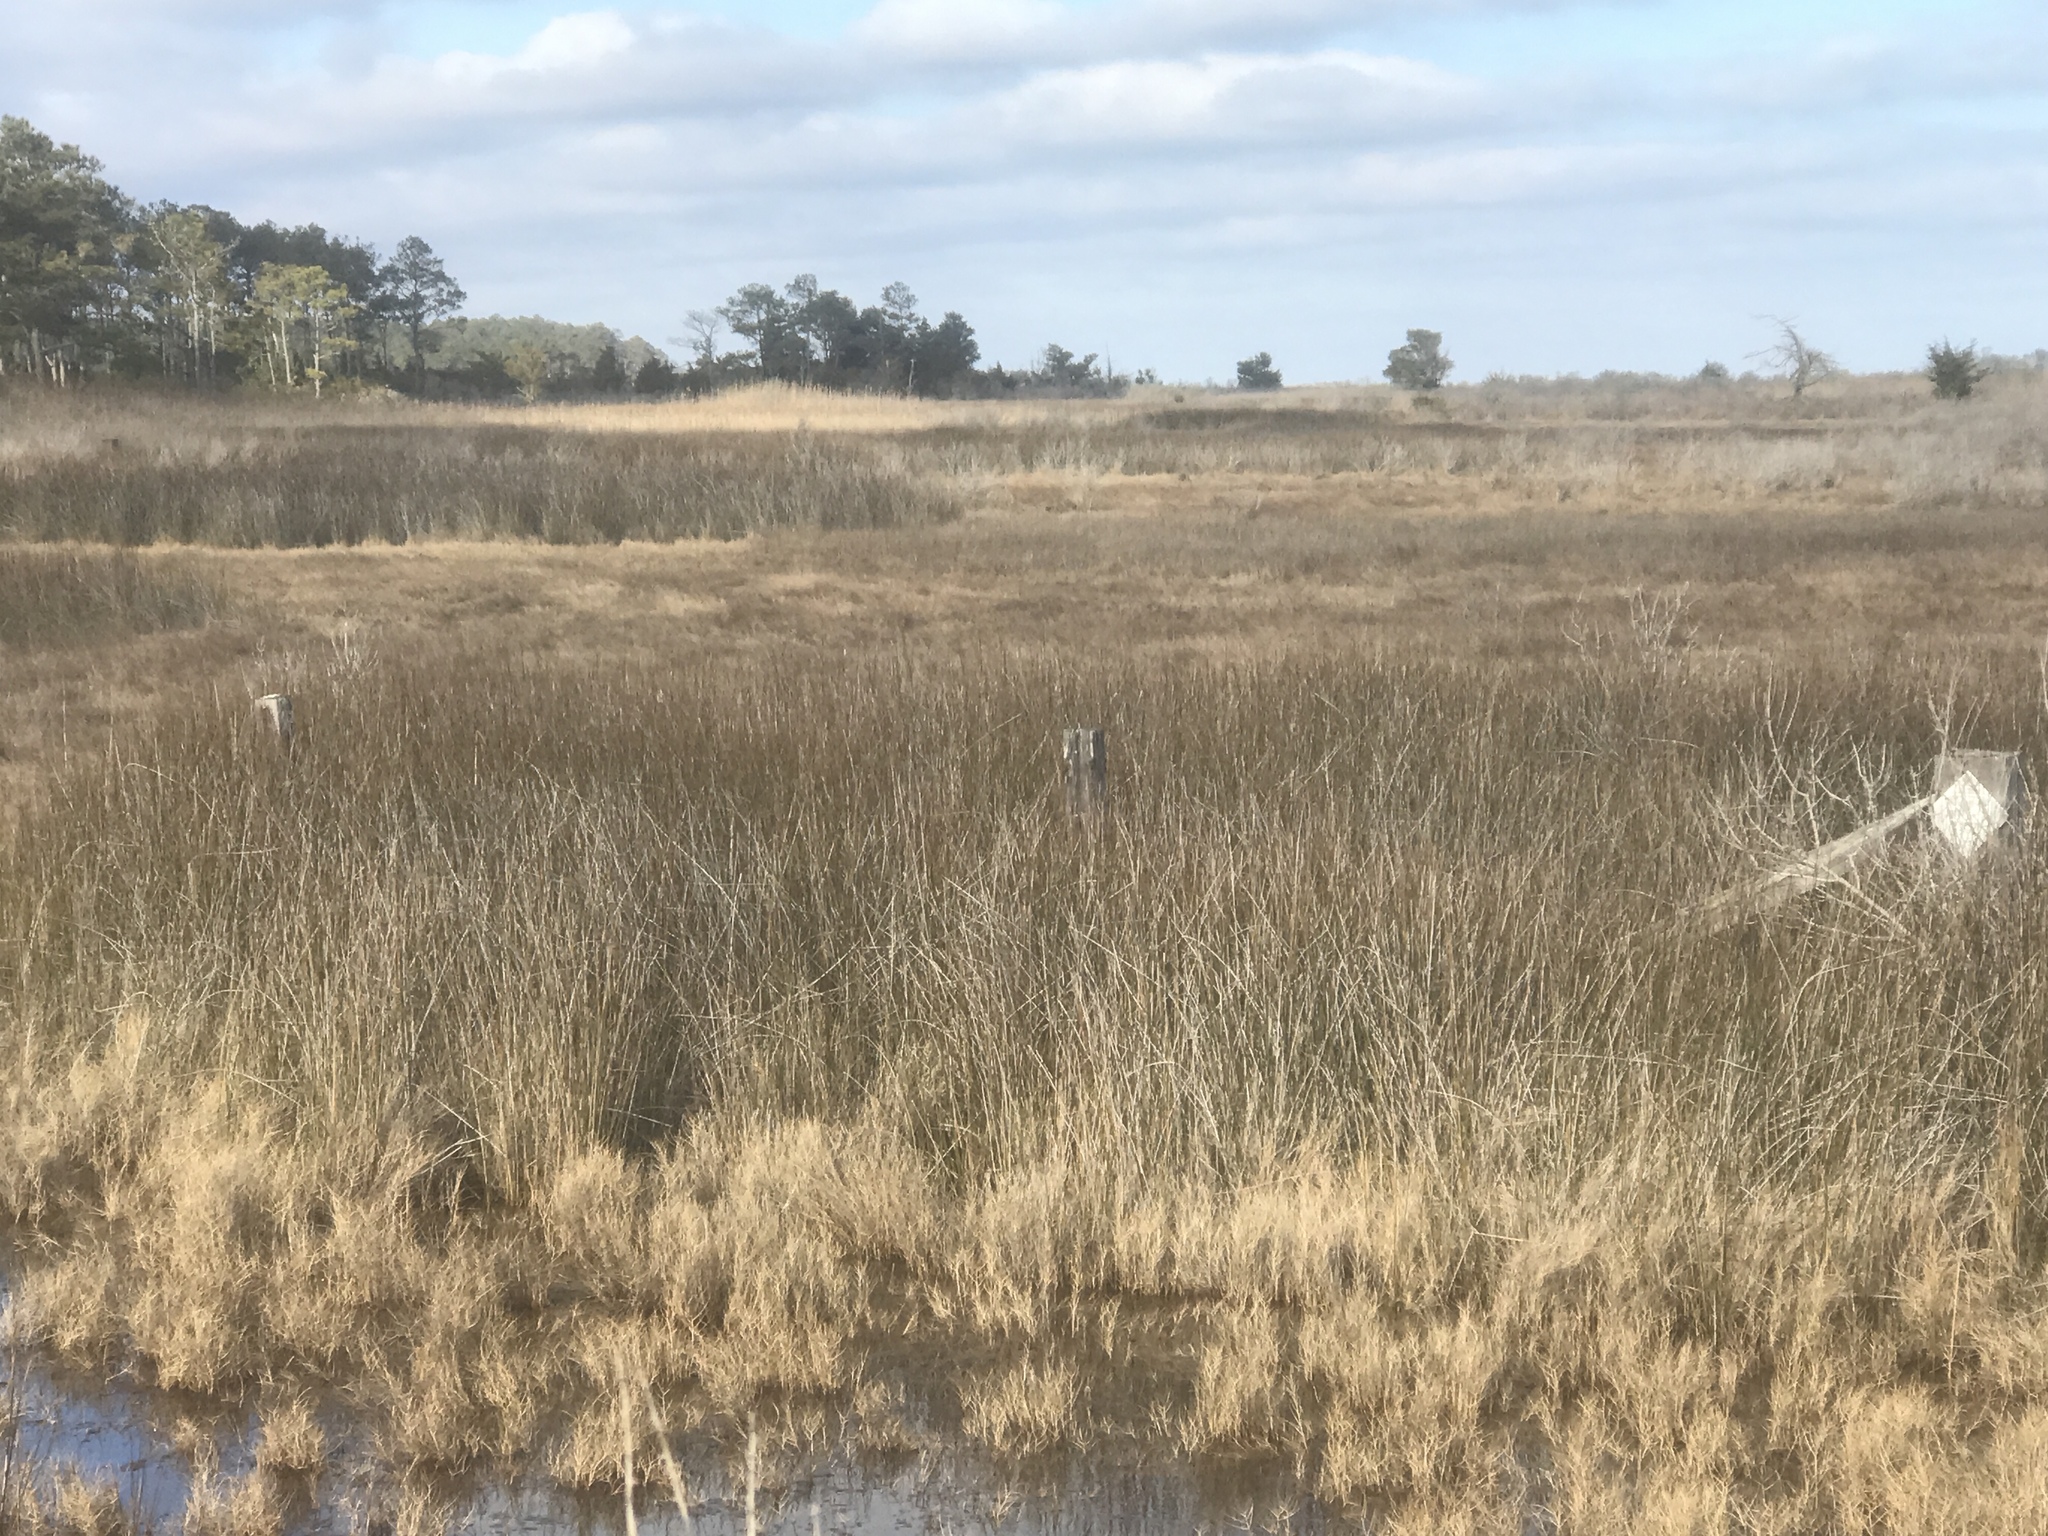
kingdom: Plantae
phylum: Tracheophyta
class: Liliopsida
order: Poales
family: Juncaceae
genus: Juncus
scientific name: Juncus roemerianus
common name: Roemer's rush
